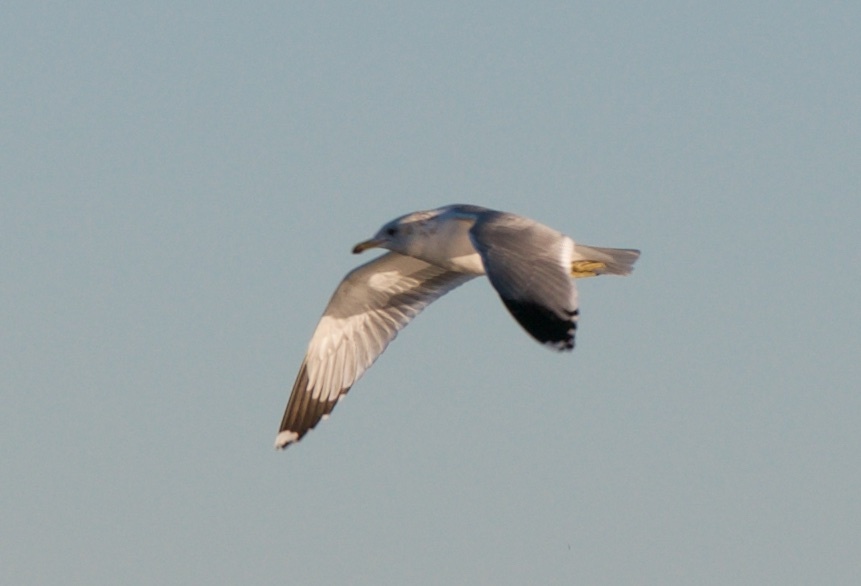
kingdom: Animalia
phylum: Chordata
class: Aves
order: Charadriiformes
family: Laridae
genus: Larus
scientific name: Larus californicus
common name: California gull
